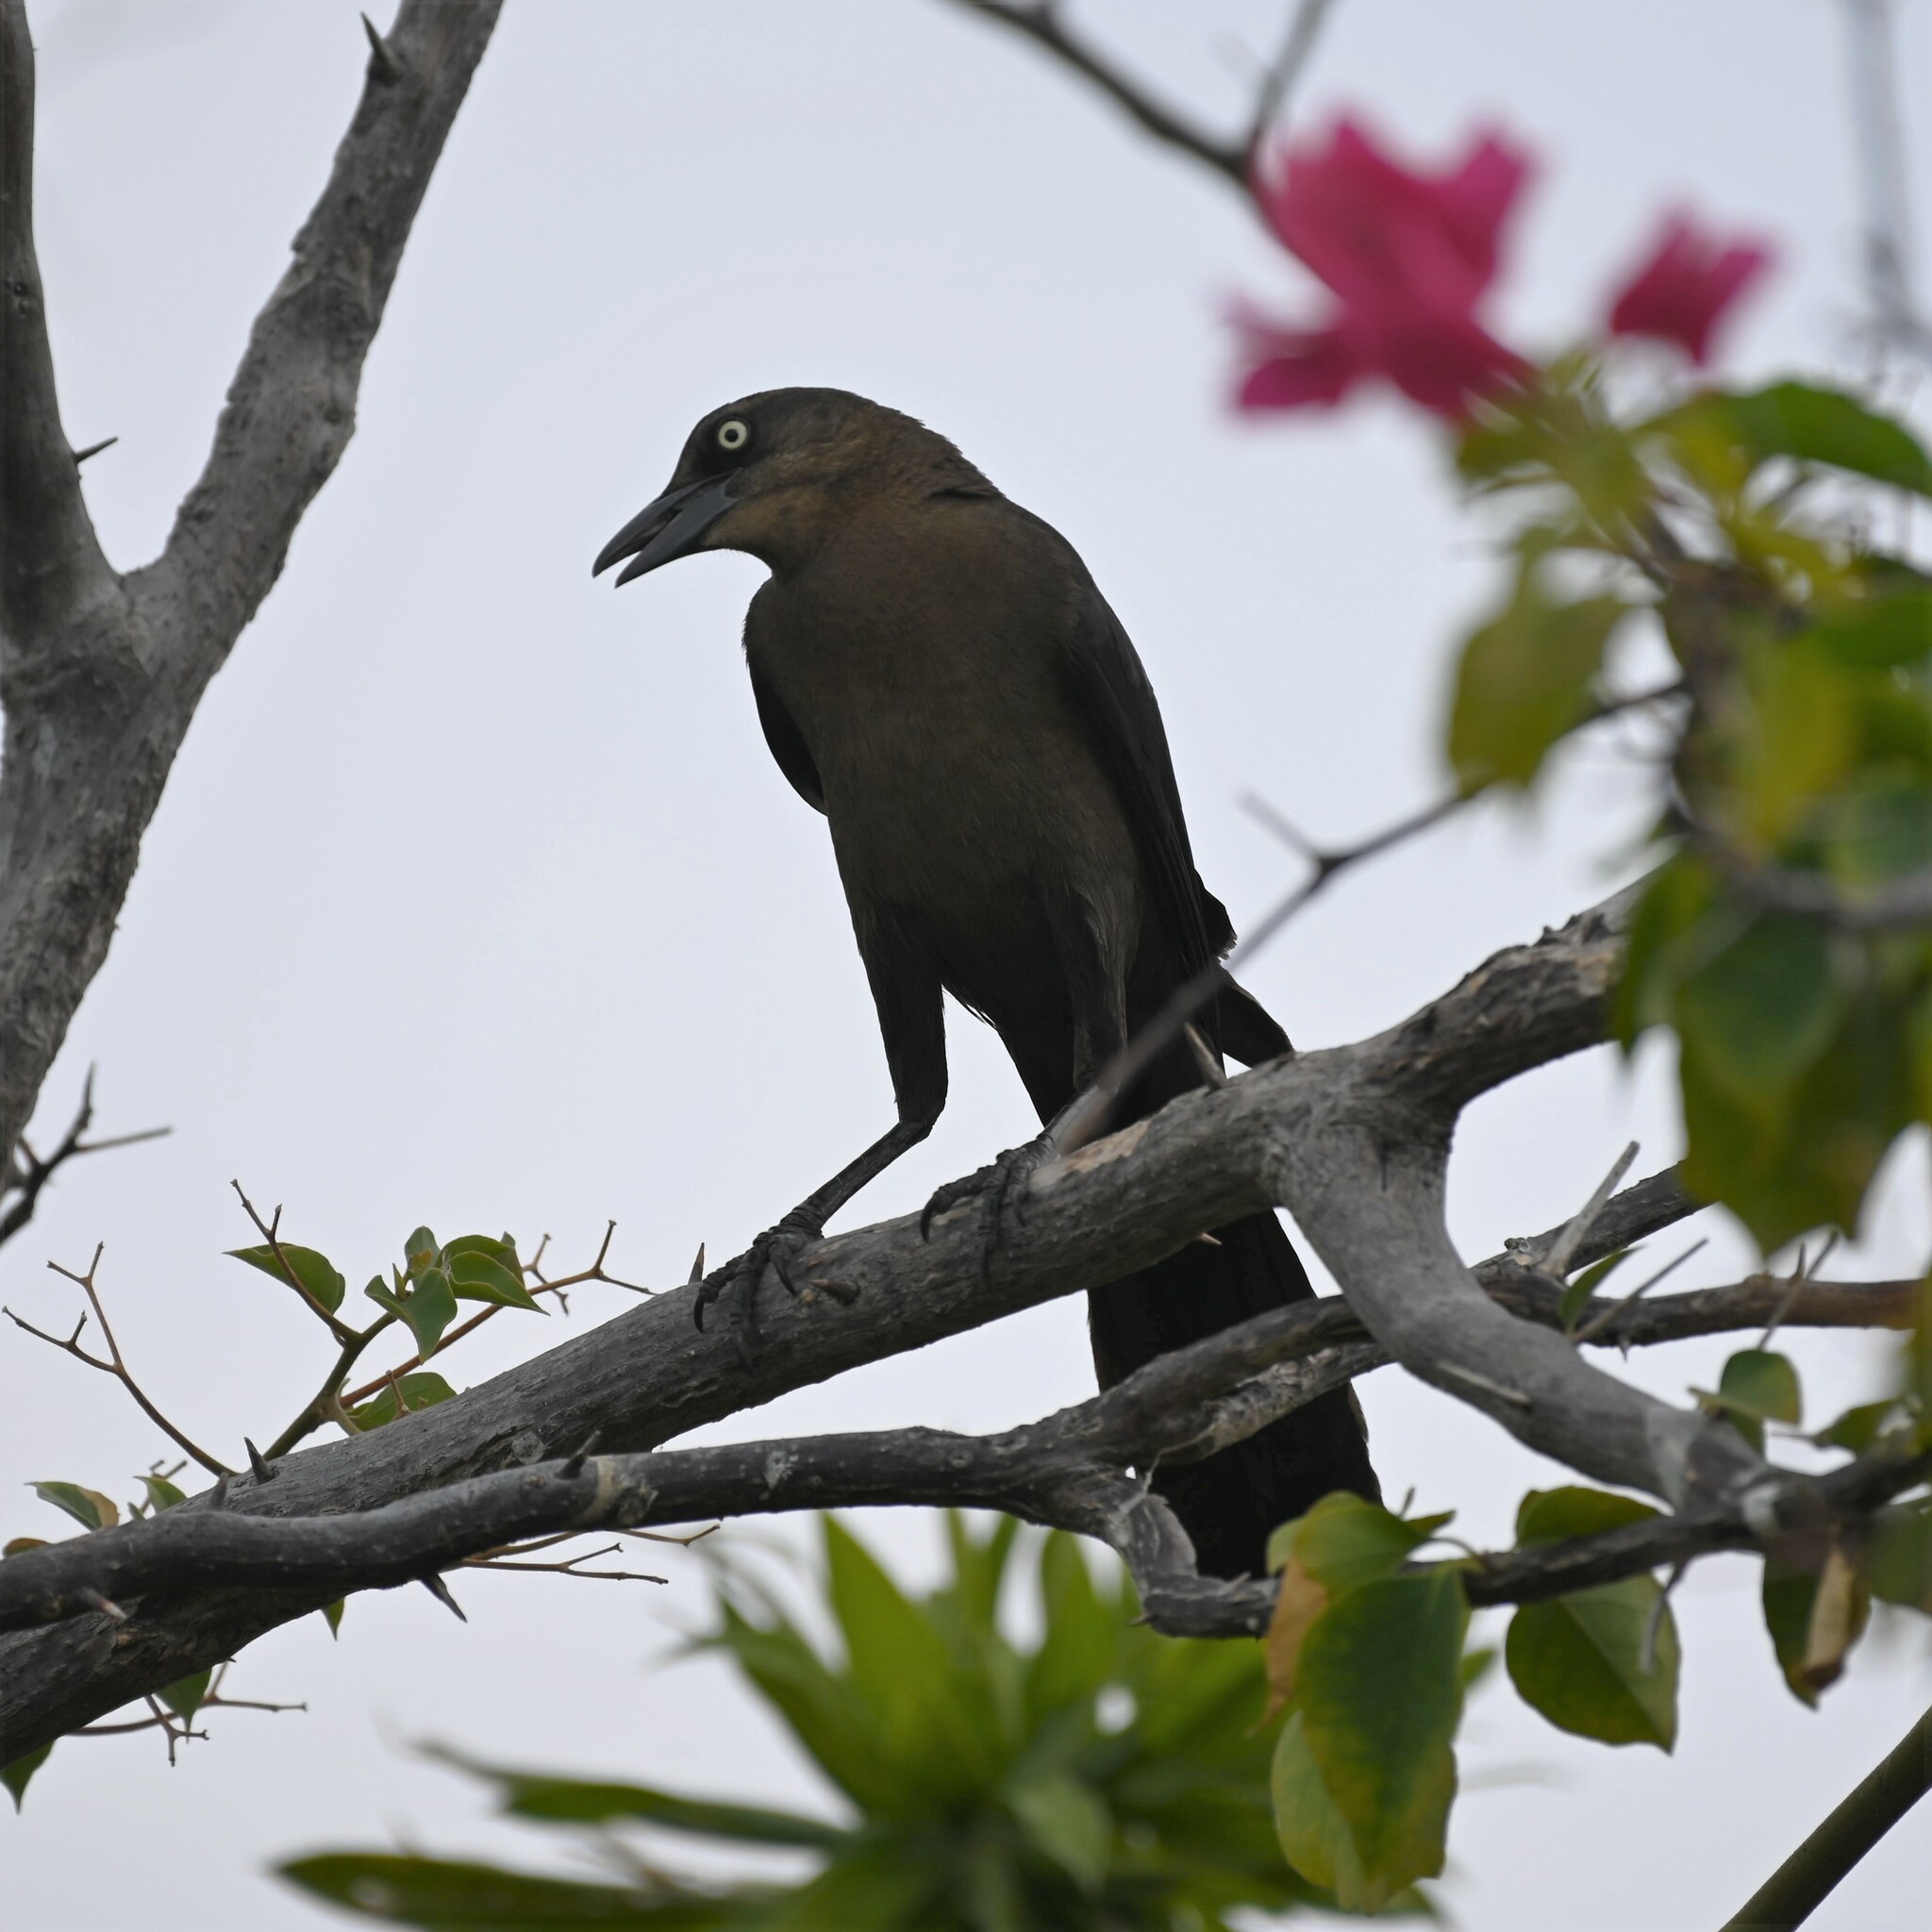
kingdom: Animalia
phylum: Chordata
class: Aves
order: Passeriformes
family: Icteridae
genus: Quiscalus
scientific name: Quiscalus mexicanus
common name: Great-tailed grackle
